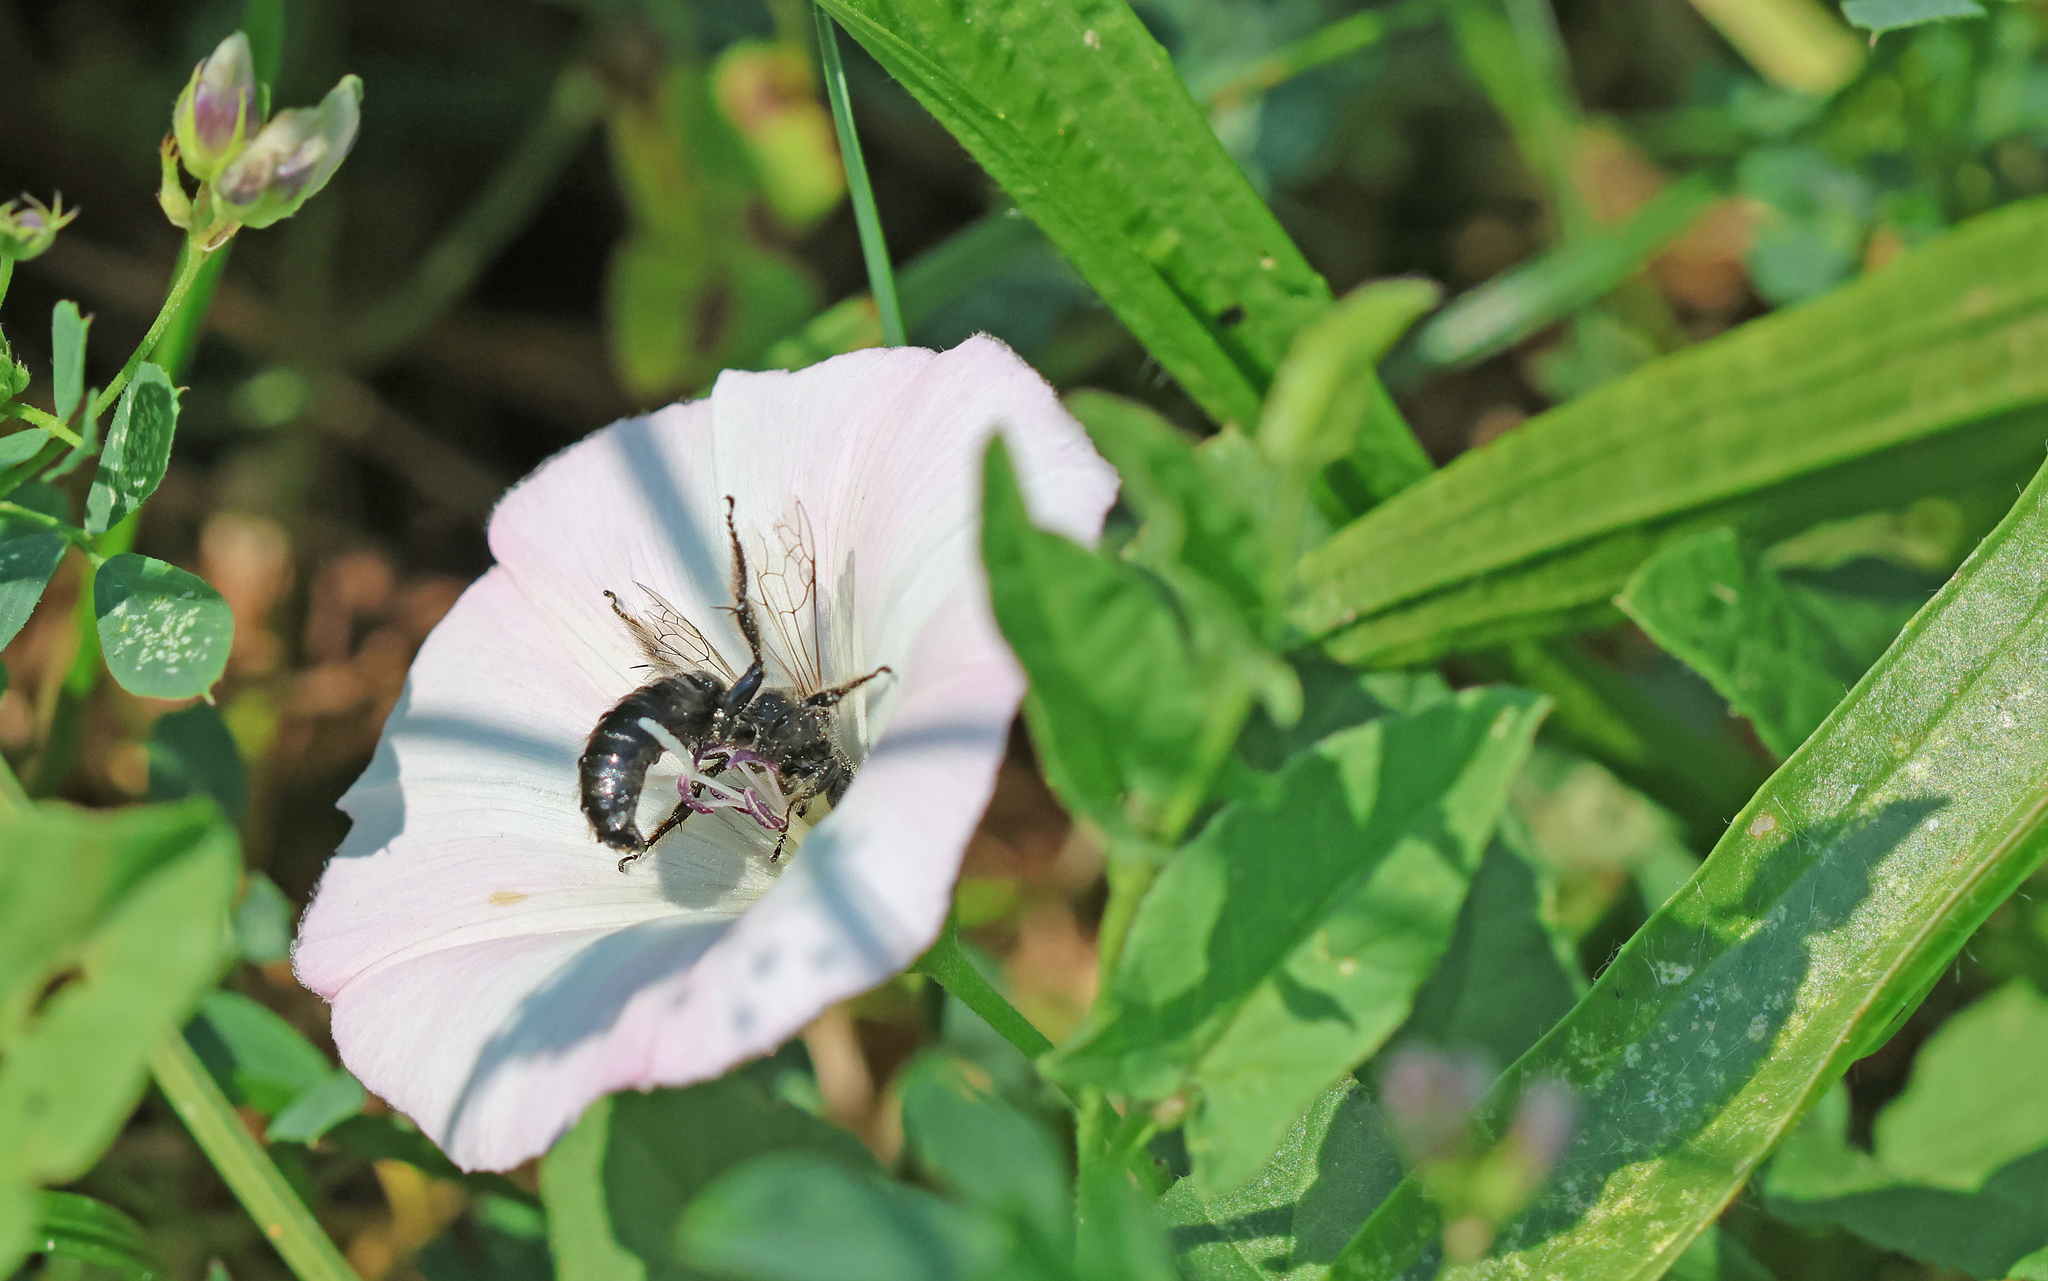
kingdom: Animalia
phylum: Arthropoda
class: Insecta
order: Hymenoptera
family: Halictidae
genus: Systropha
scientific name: Systropha planidens
